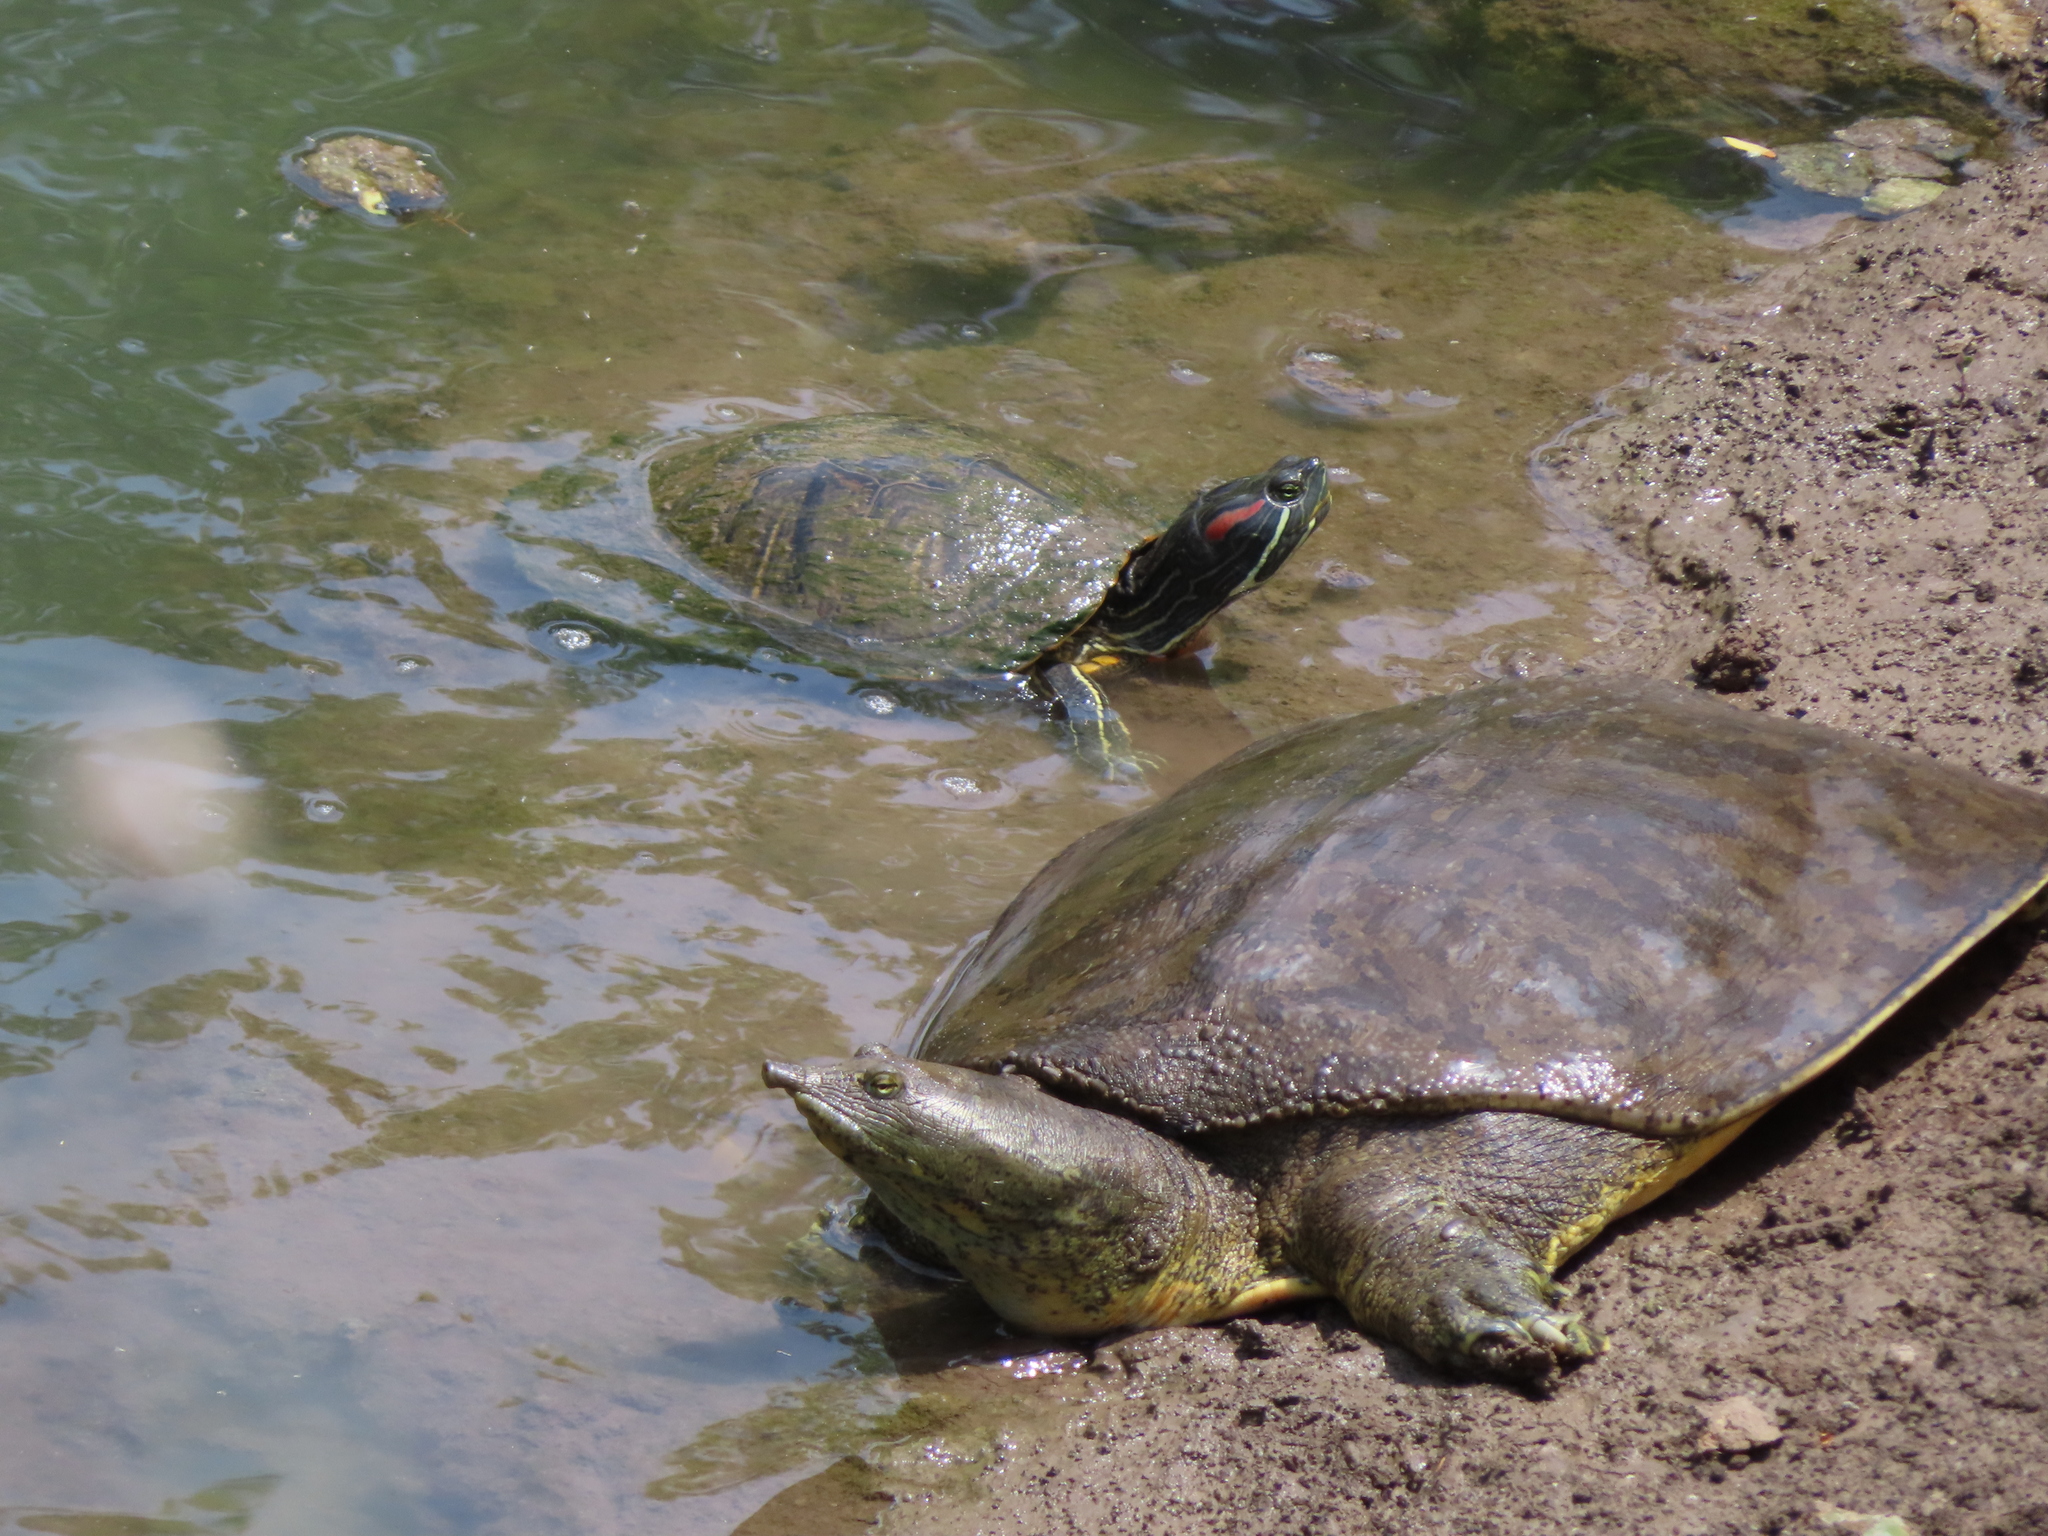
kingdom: Animalia
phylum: Chordata
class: Testudines
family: Emydidae
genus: Trachemys
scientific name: Trachemys scripta
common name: Slider
